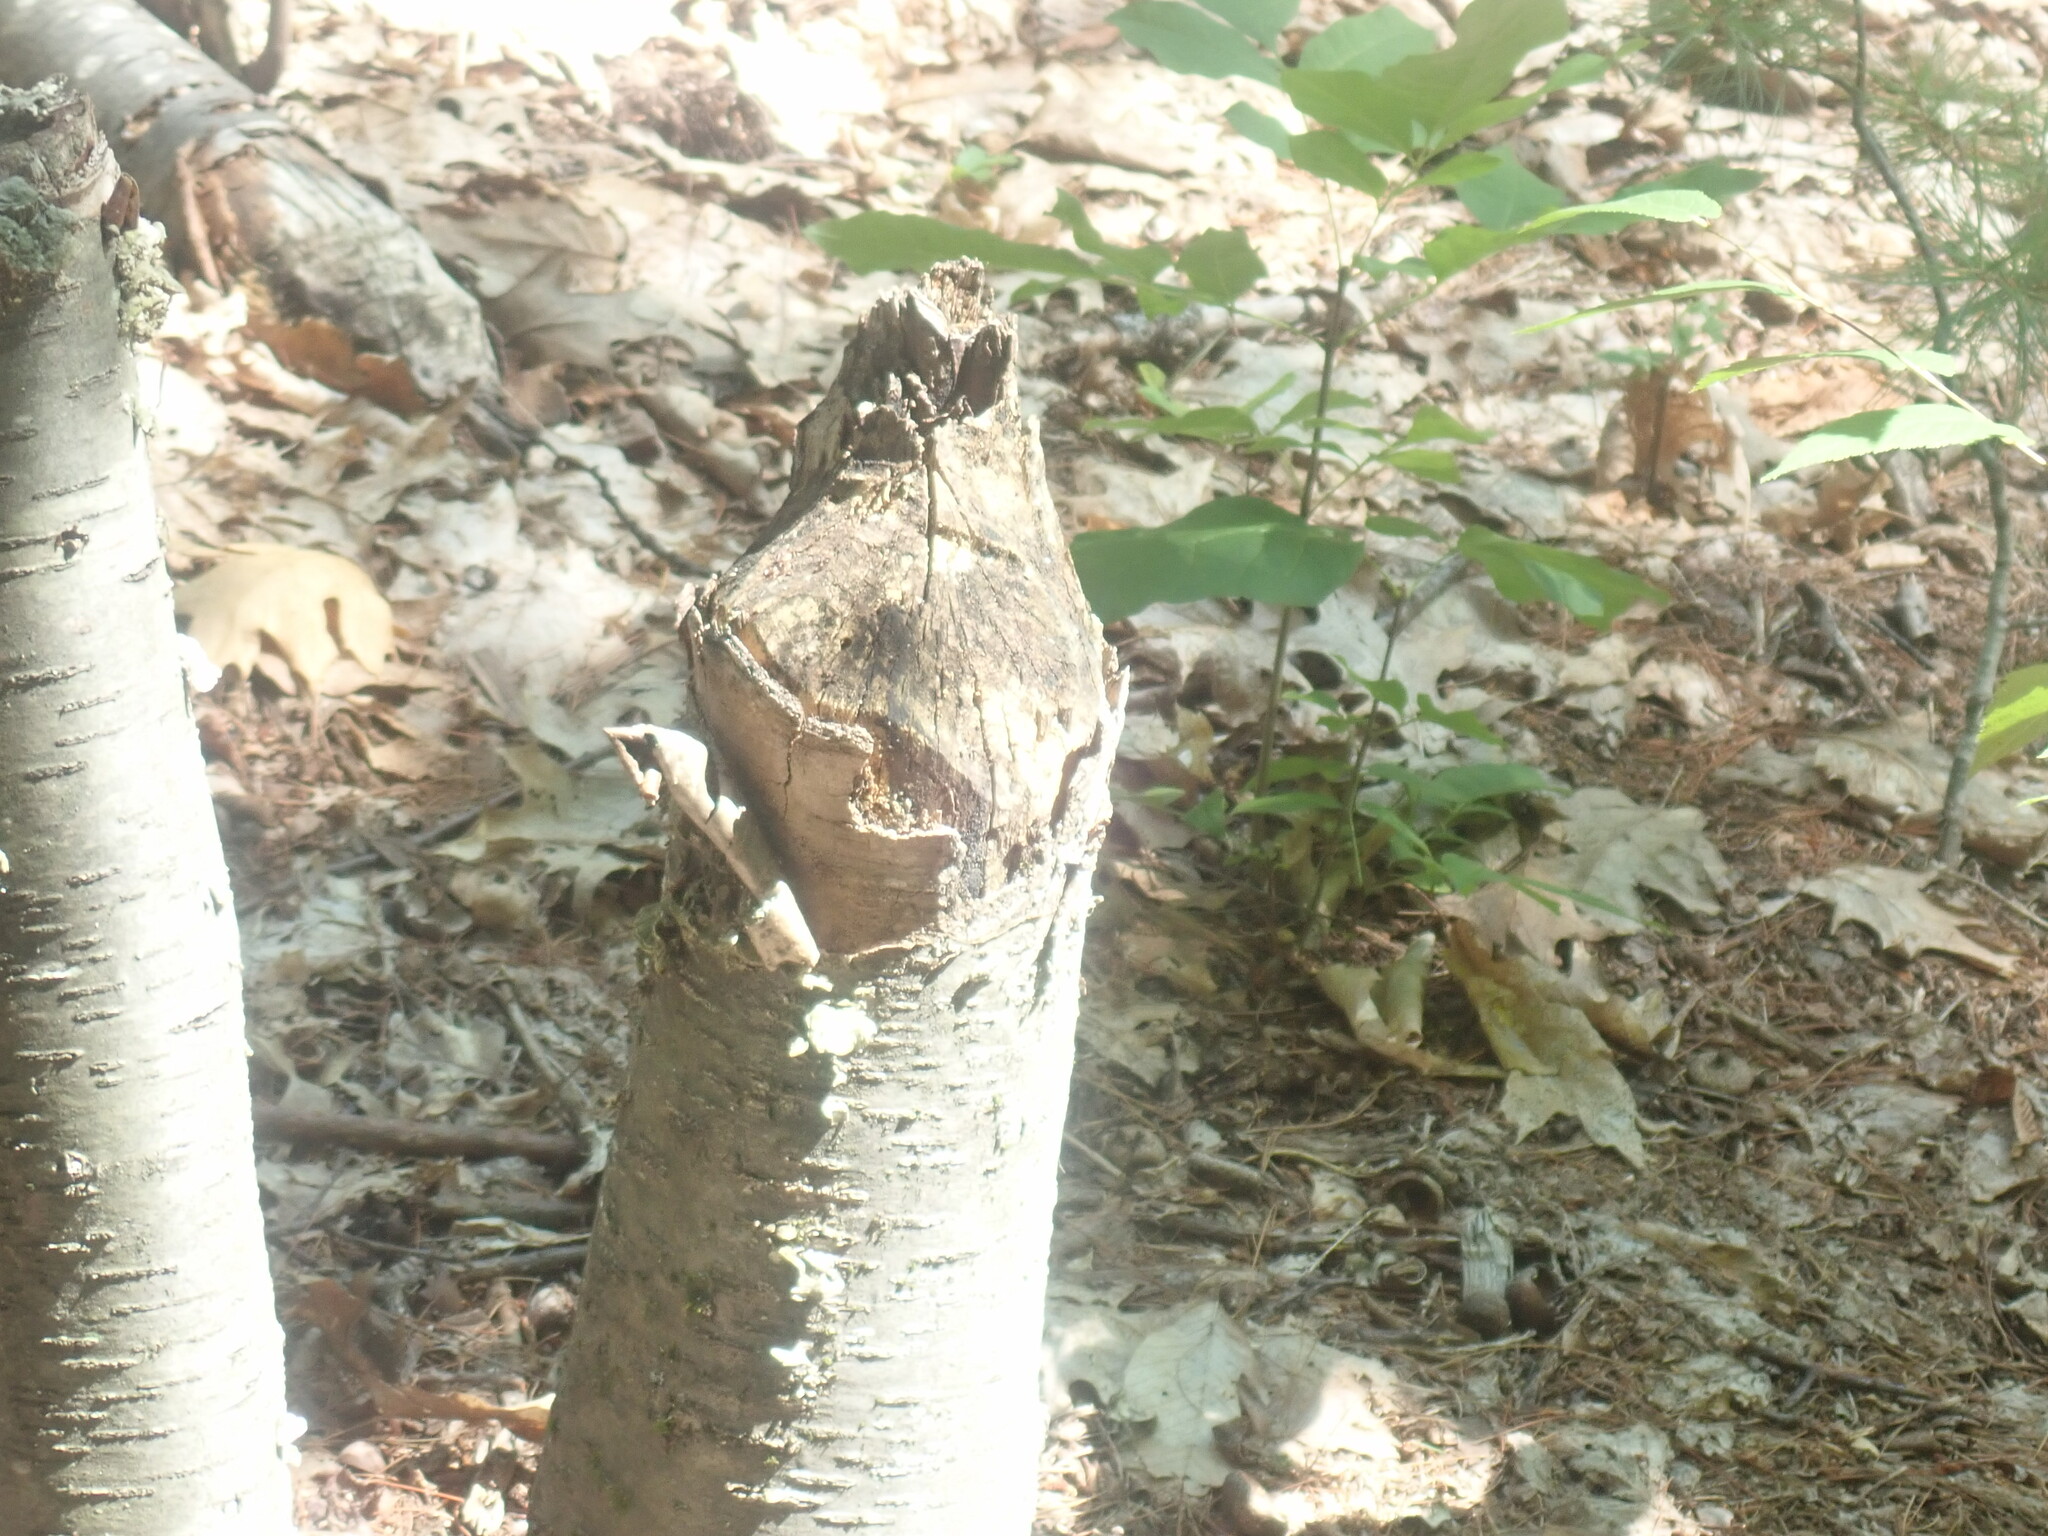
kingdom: Animalia
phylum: Chordata
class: Mammalia
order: Rodentia
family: Castoridae
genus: Castor
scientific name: Castor canadensis
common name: American beaver
